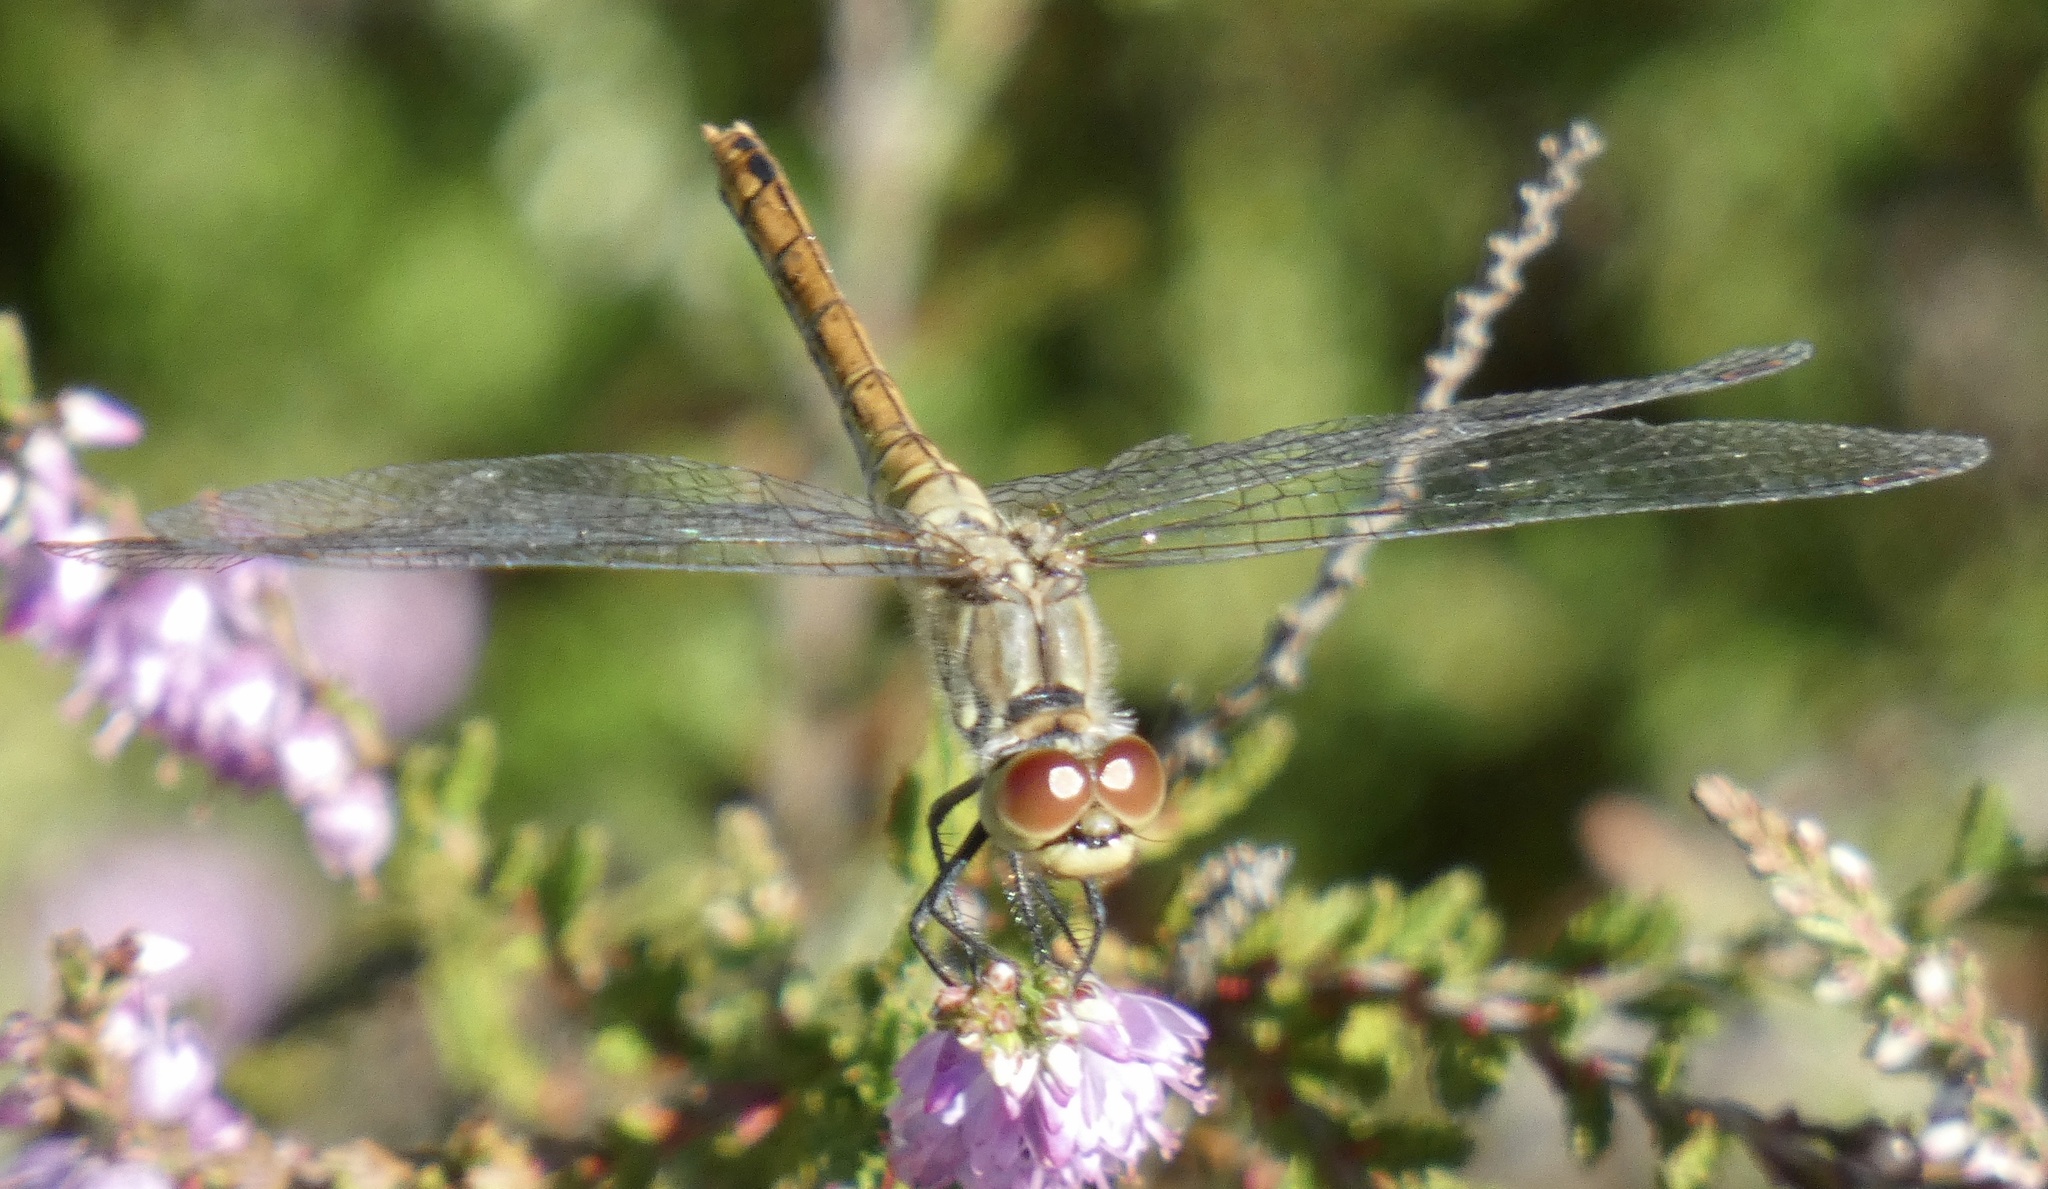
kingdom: Animalia
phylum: Arthropoda
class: Insecta
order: Odonata
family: Libellulidae
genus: Sympetrum
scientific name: Sympetrum sanguineum
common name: Ruddy darter
